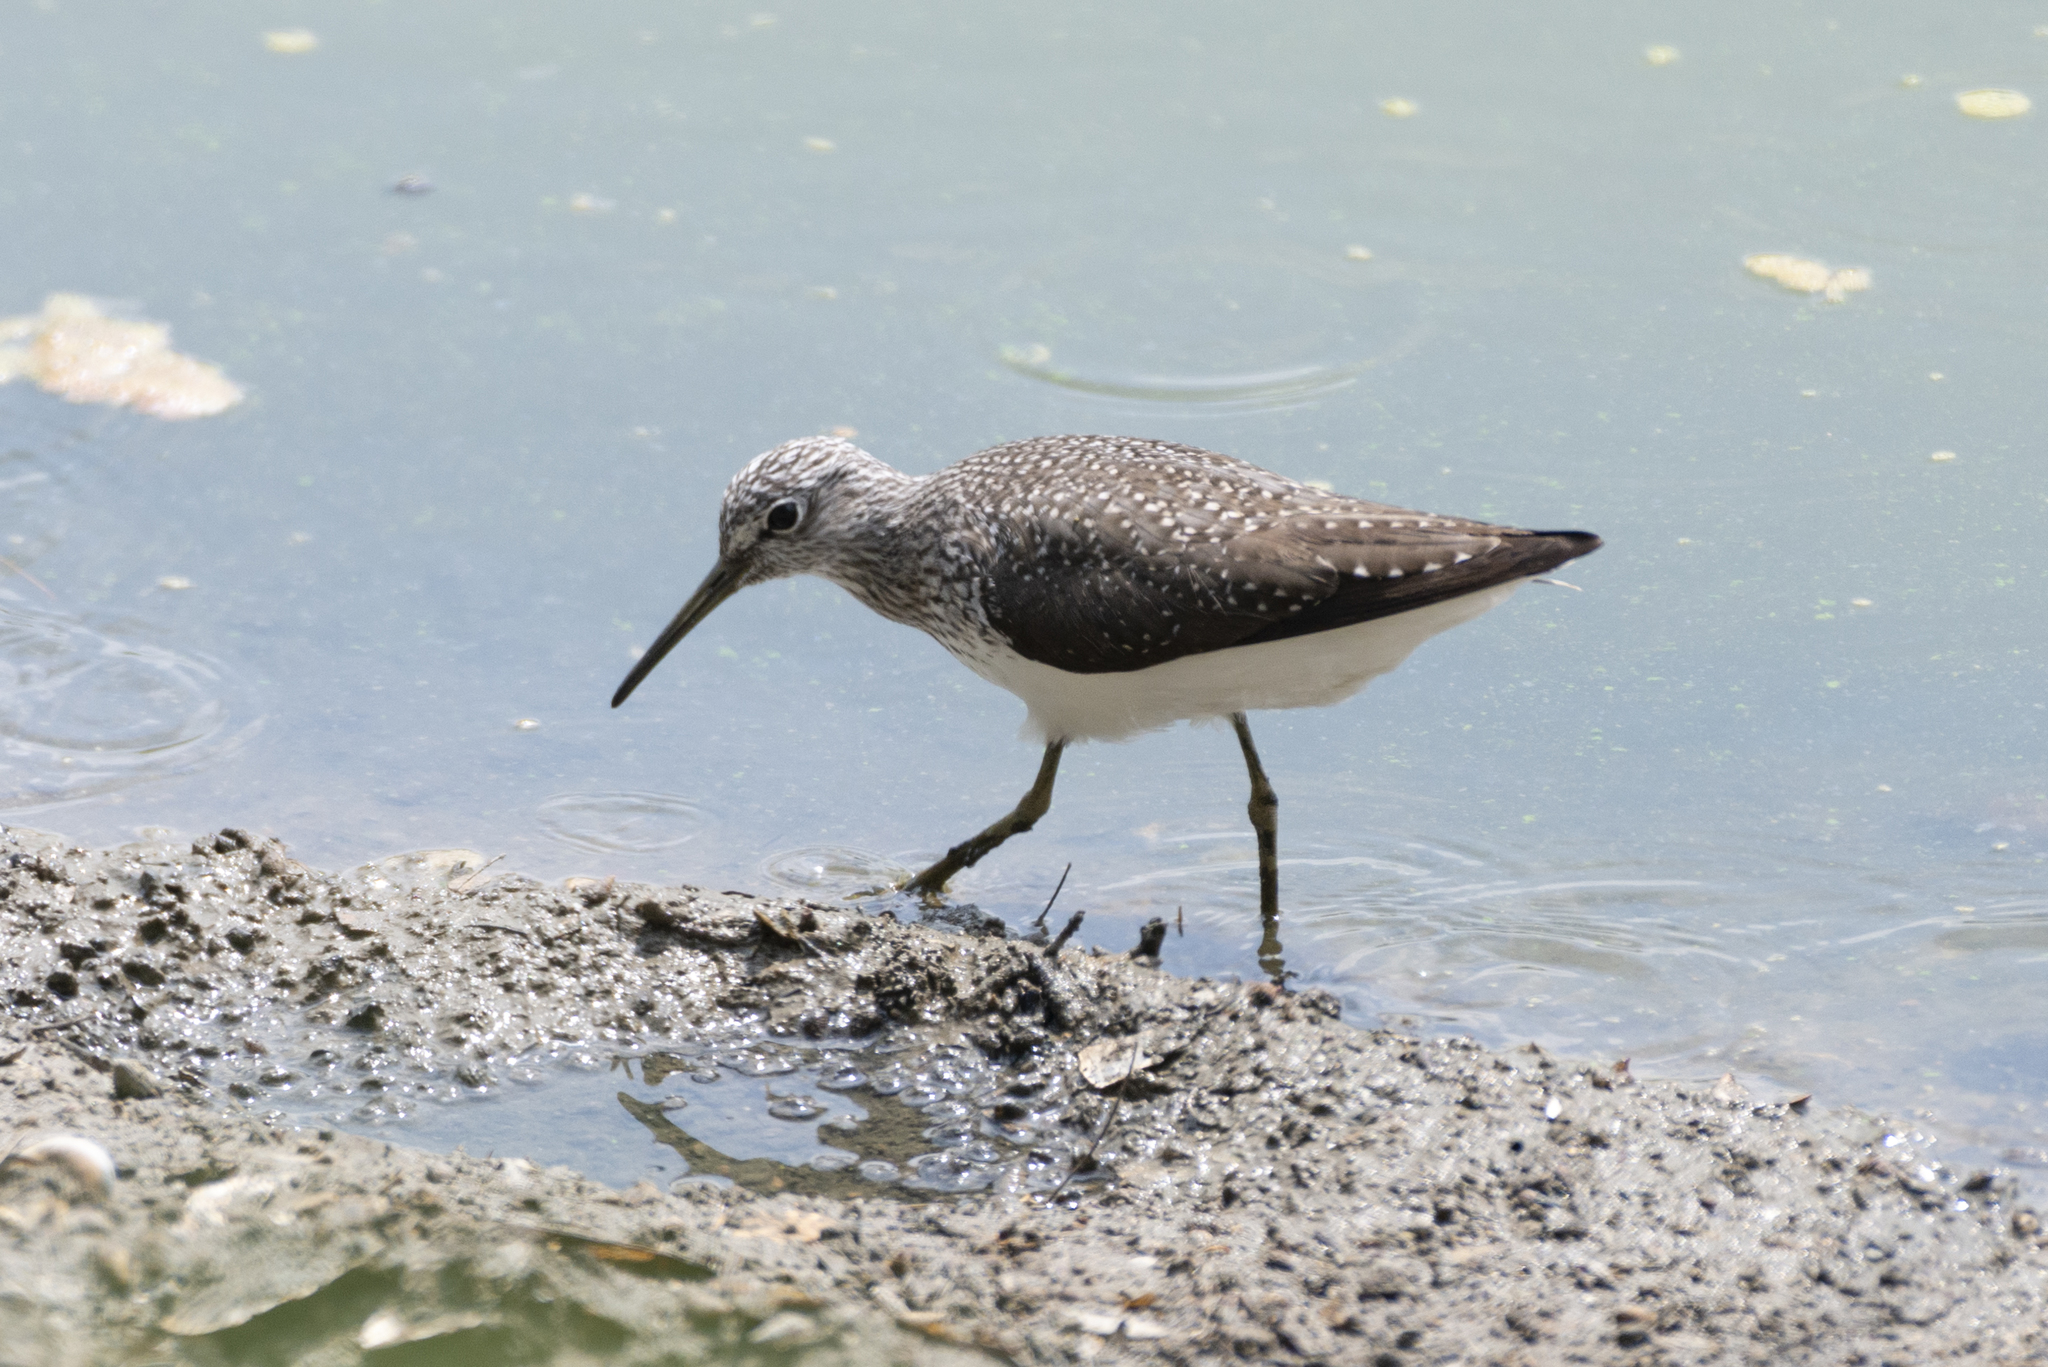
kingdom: Animalia
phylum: Chordata
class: Aves
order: Charadriiformes
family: Scolopacidae
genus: Tringa
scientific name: Tringa ochropus
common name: Green sandpiper
